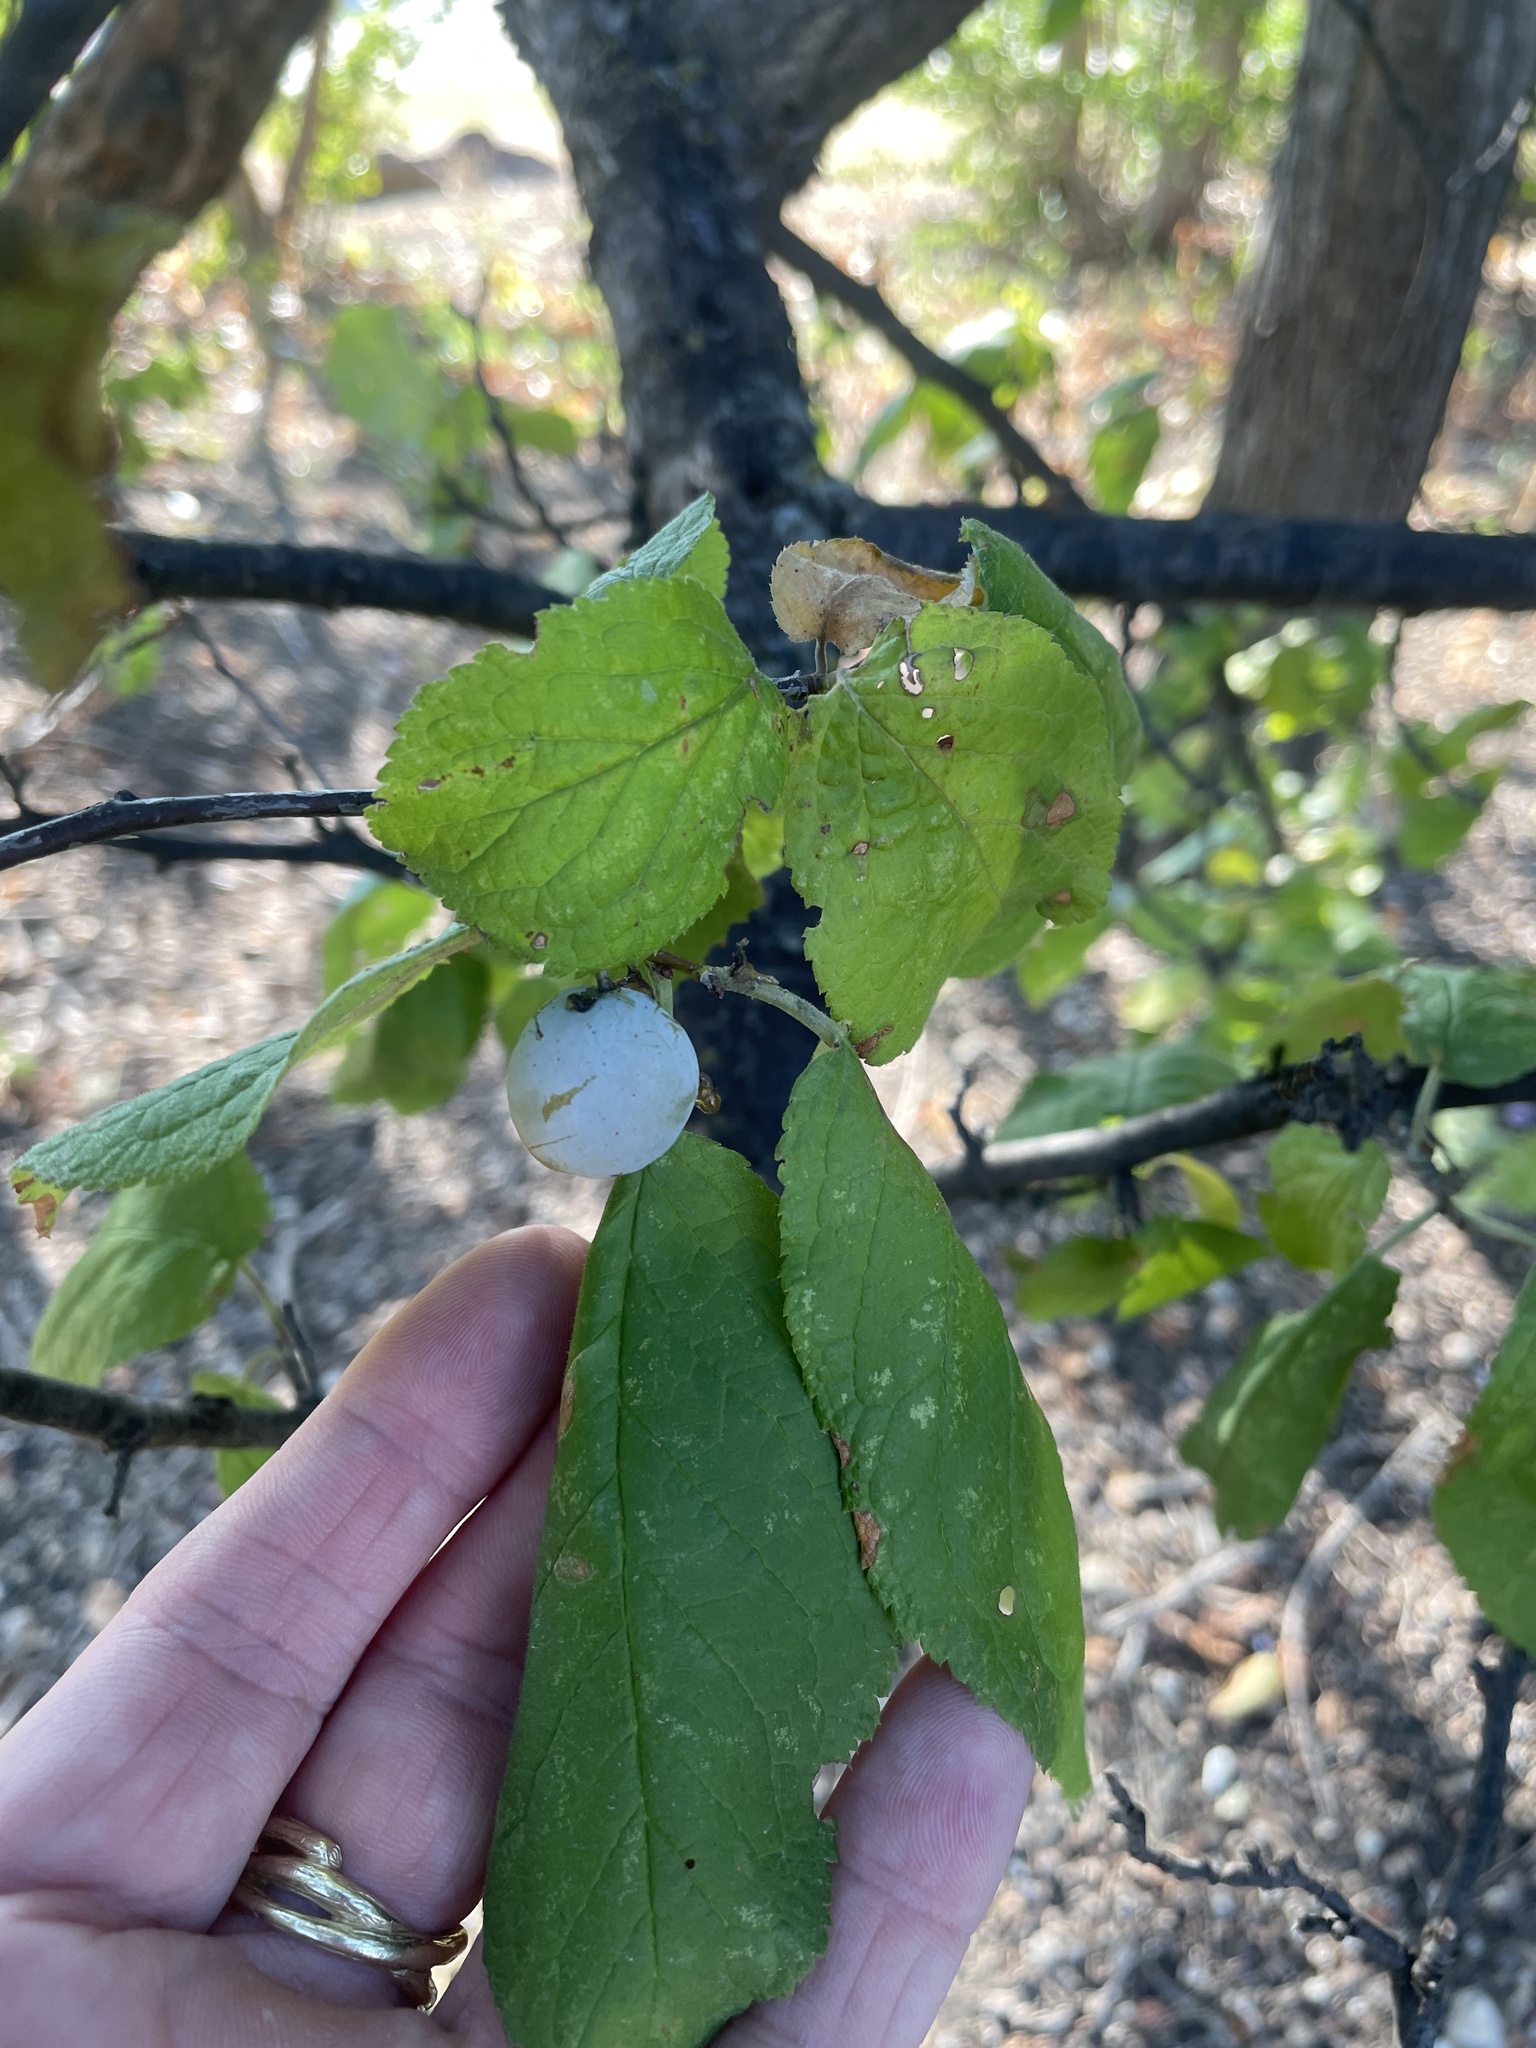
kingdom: Plantae
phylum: Tracheophyta
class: Magnoliopsida
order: Rosales
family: Rosaceae
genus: Prunus
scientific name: Prunus mexicana
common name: Mexican plum
